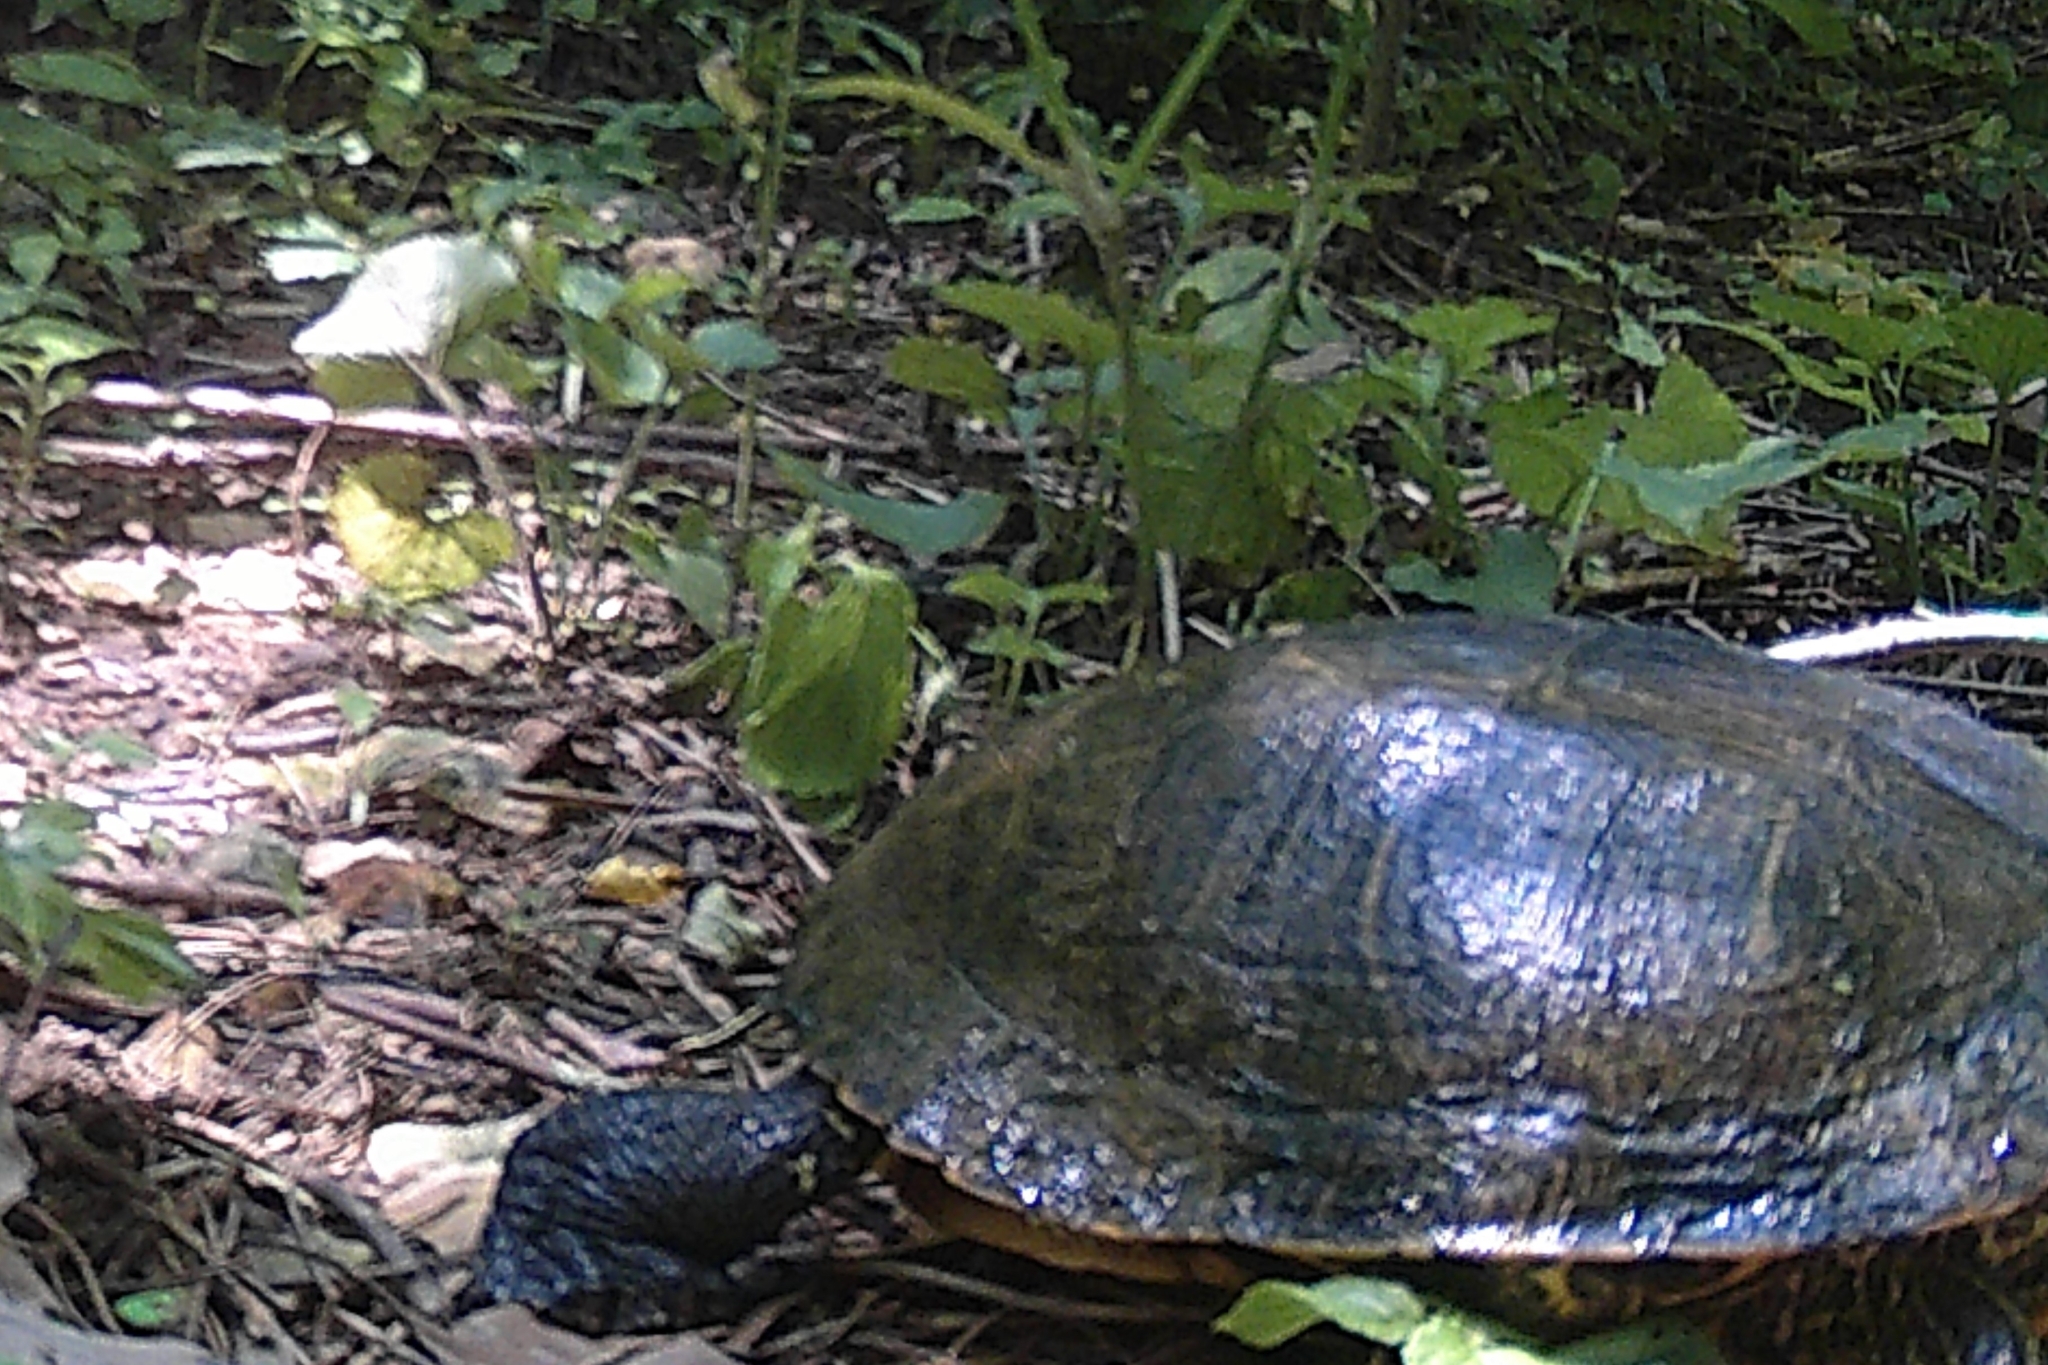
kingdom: Animalia
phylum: Chordata
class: Testudines
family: Emydidae
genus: Pseudemys
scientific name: Pseudemys concinna
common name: Eastern river cooter
